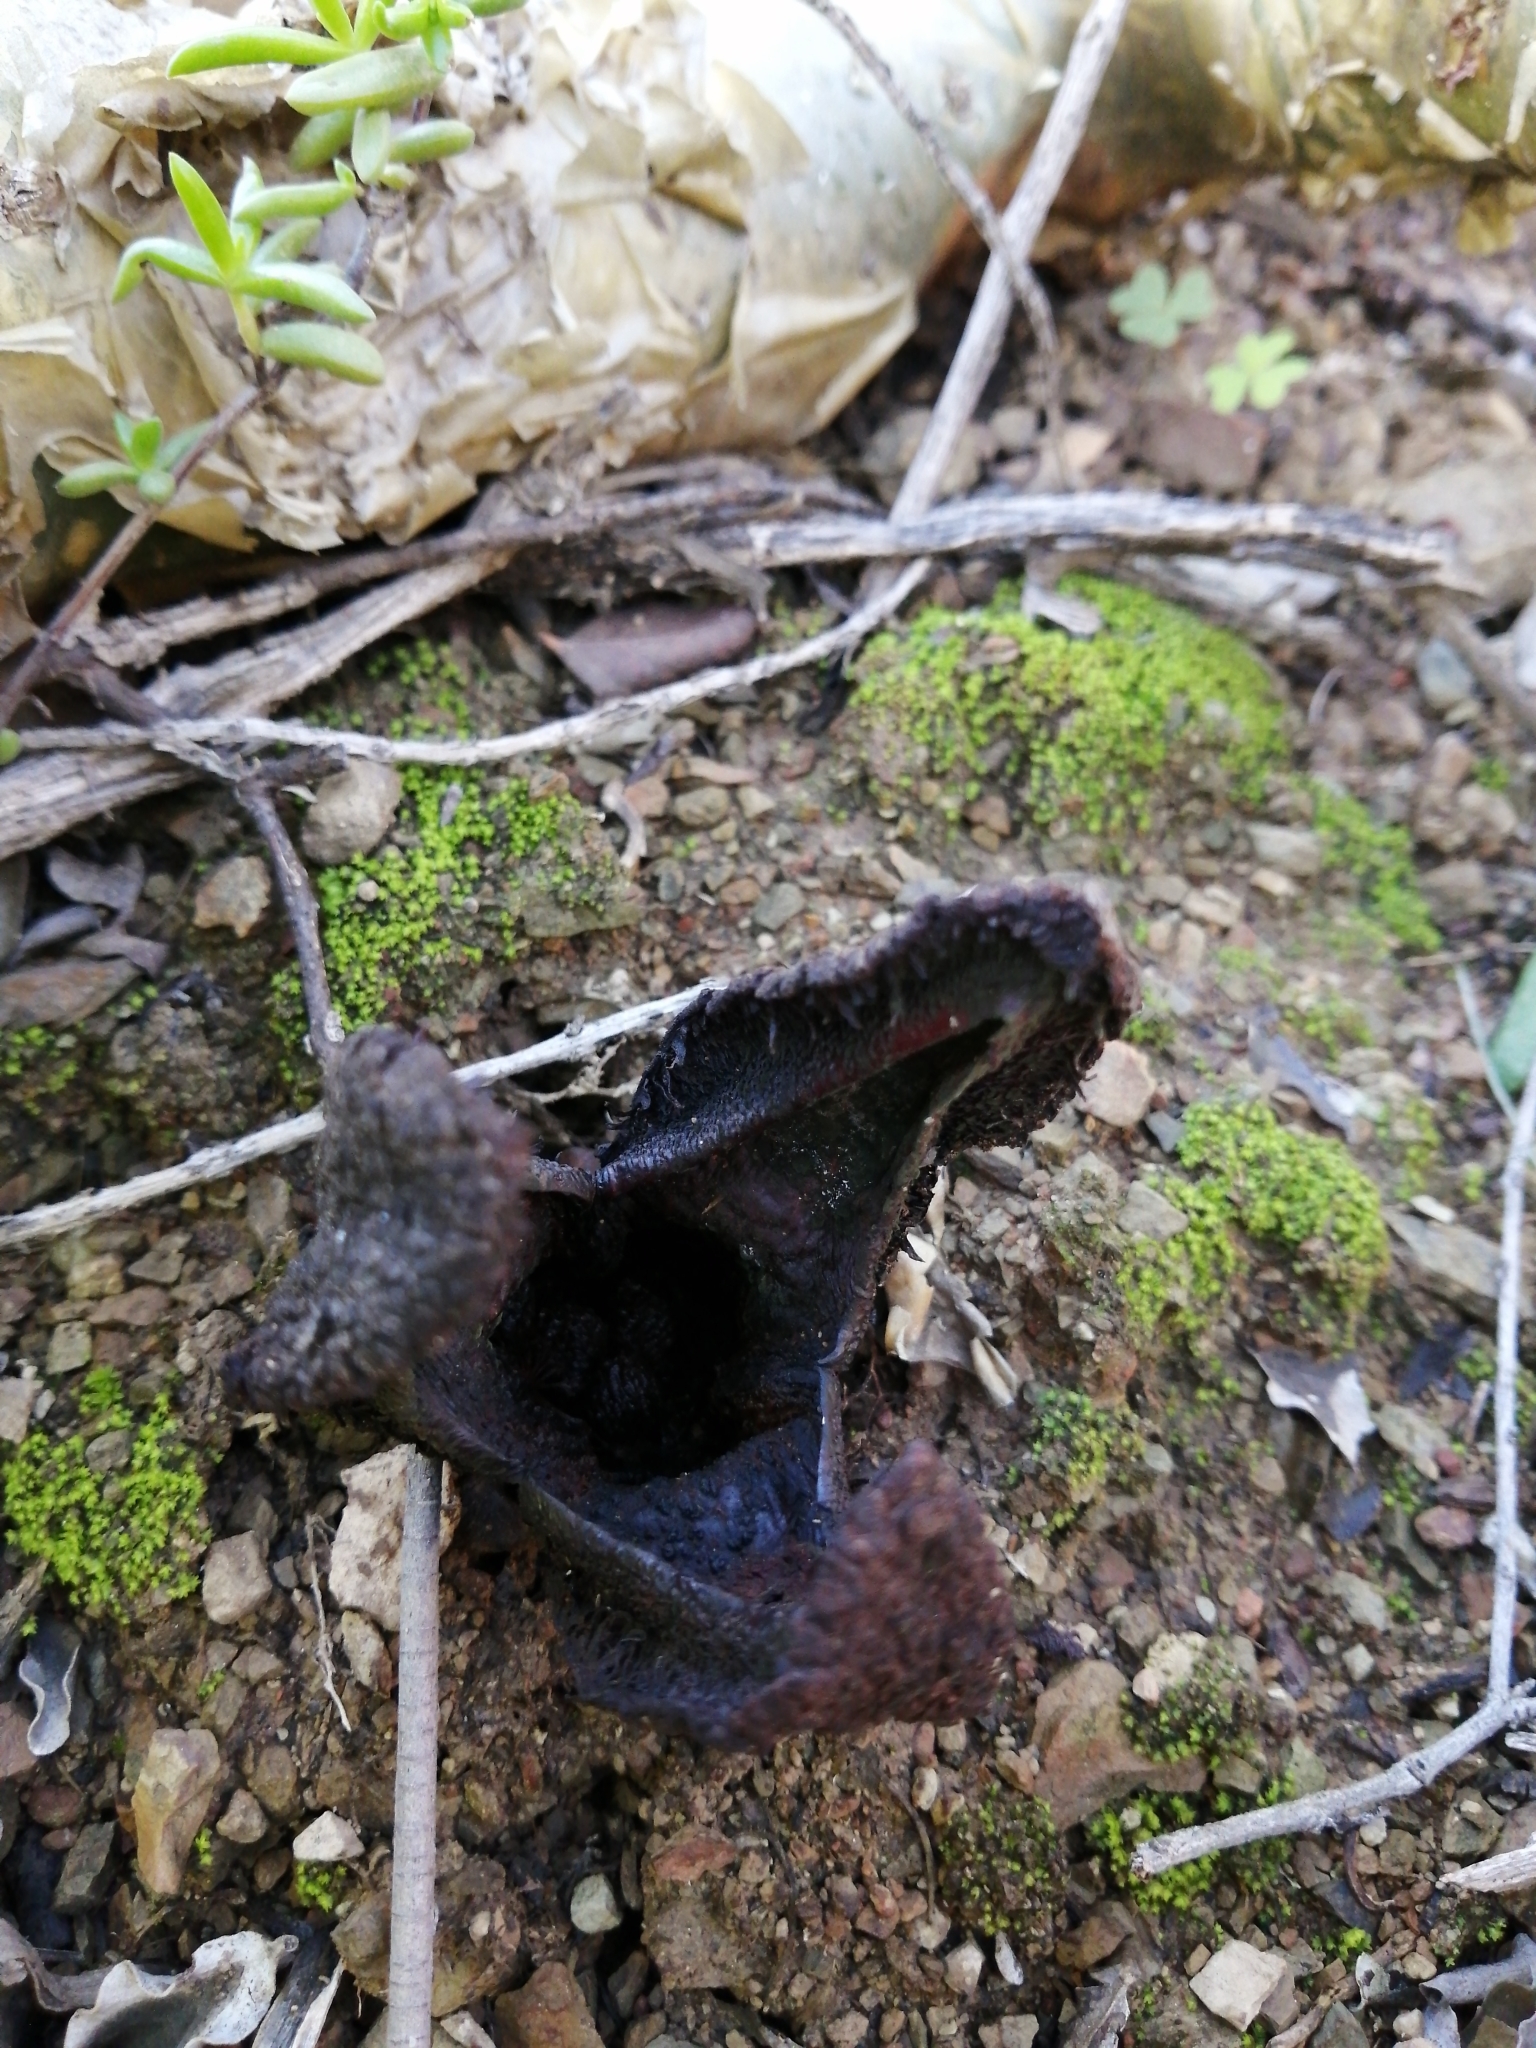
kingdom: Plantae
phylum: Tracheophyta
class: Magnoliopsida
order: Piperales
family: Hydnoraceae
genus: Hydnora
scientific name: Hydnora africana
